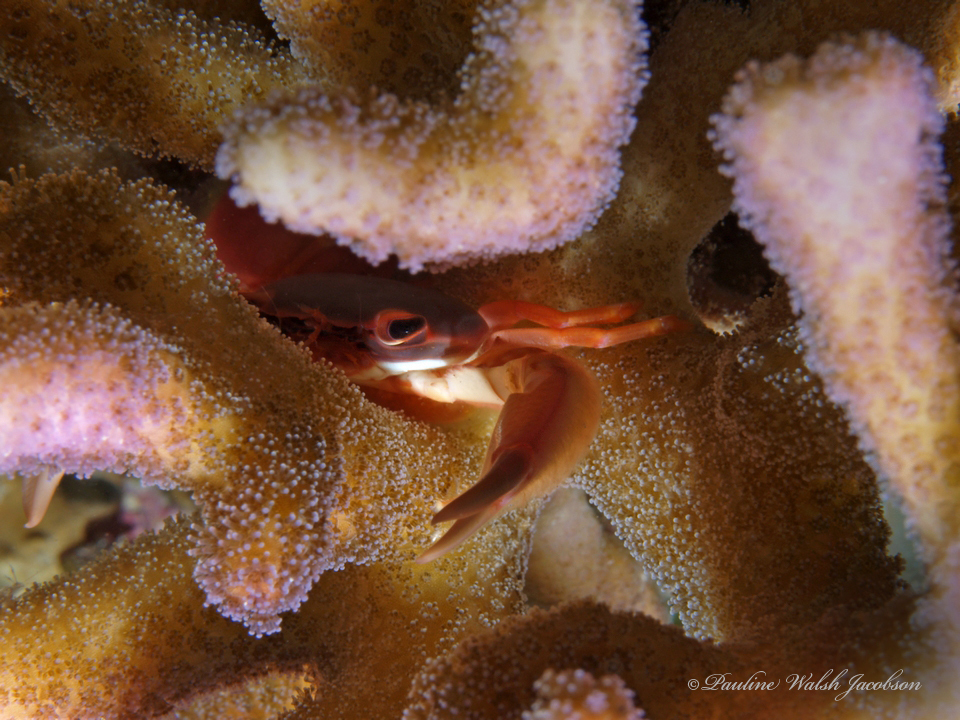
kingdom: Animalia
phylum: Arthropoda
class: Malacostraca
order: Decapoda
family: Trapeziidae
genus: Trapezia
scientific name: Trapezia cymodoce
